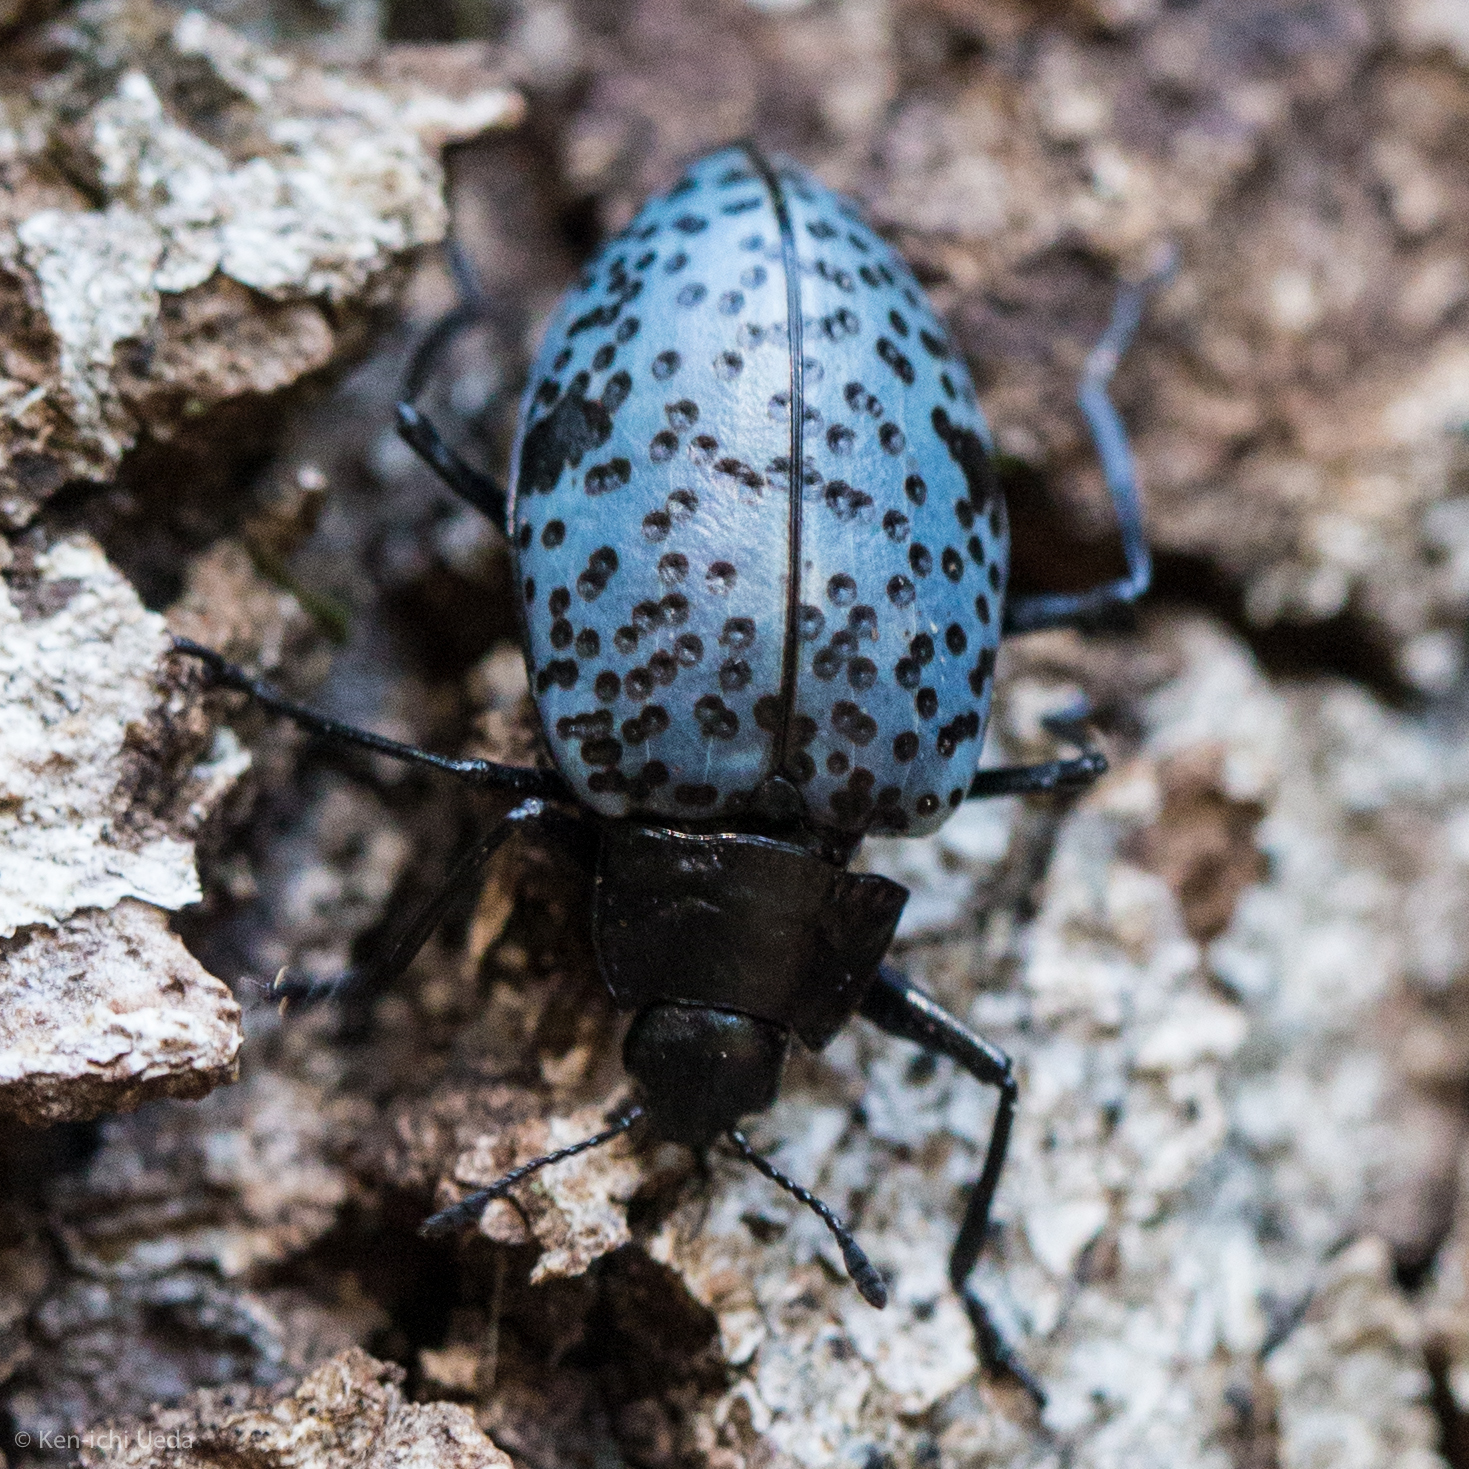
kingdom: Animalia
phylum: Arthropoda
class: Insecta
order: Coleoptera
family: Erotylidae
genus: Gibbifer
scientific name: Gibbifer californicus
